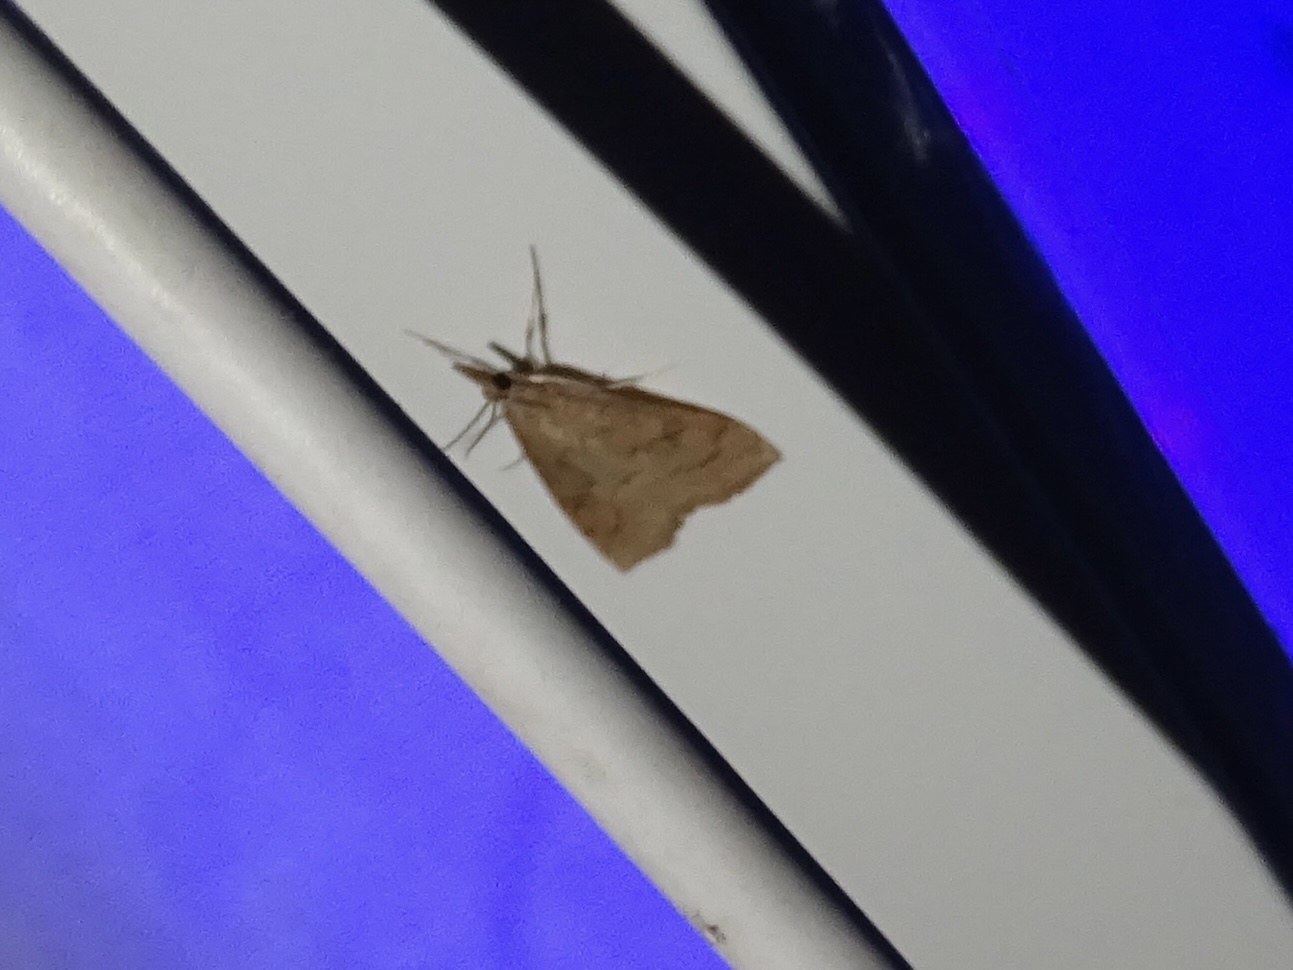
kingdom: Animalia
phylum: Arthropoda
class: Insecta
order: Lepidoptera
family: Crambidae
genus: Udea
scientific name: Udea rubigalis
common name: Celery leaftier moth
